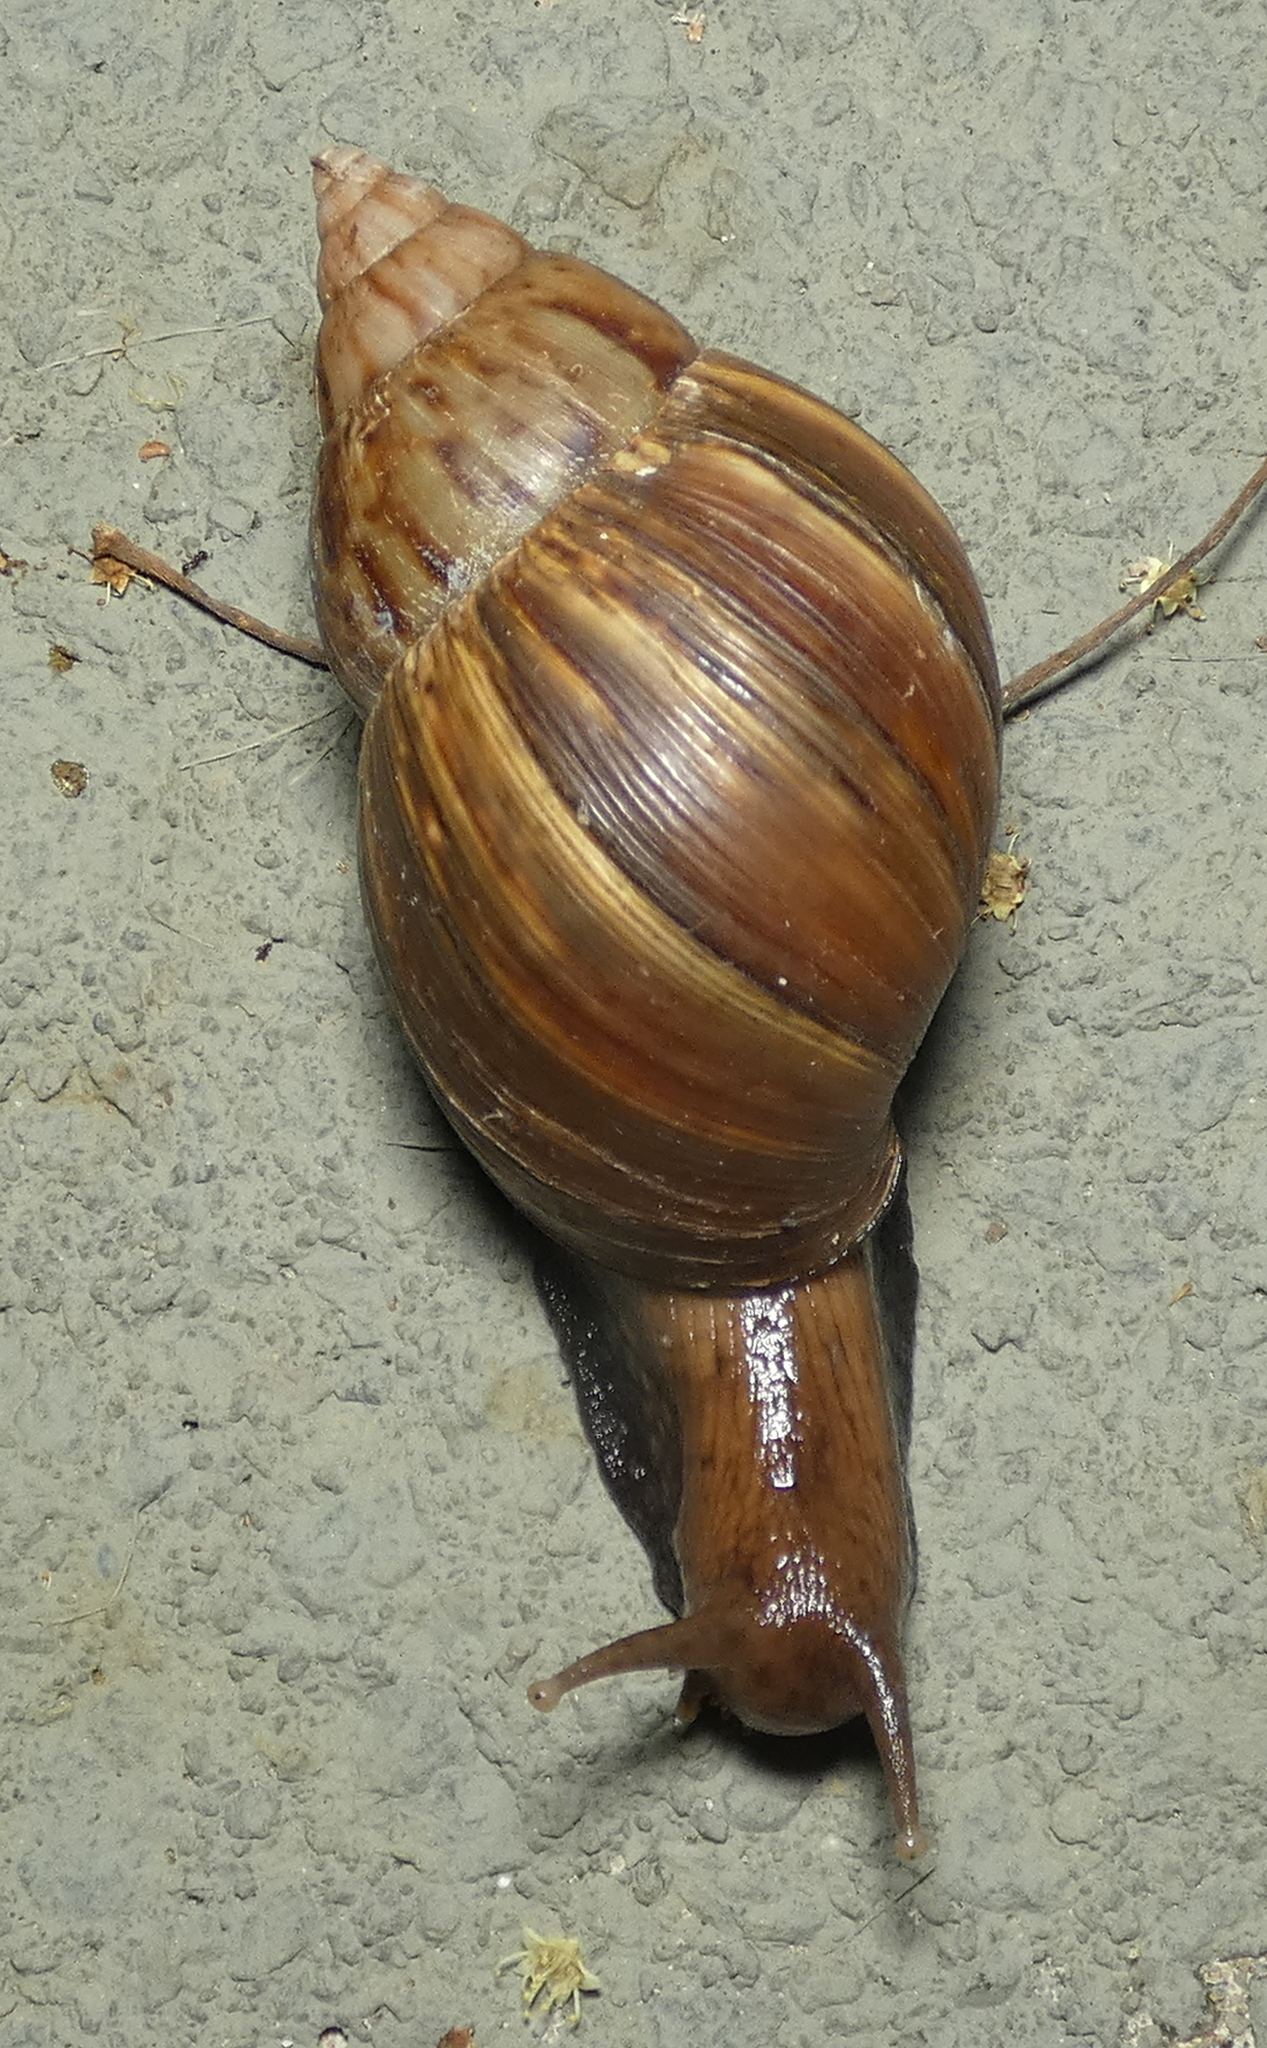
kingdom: Animalia
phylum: Mollusca
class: Gastropoda
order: Stylommatophora
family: Achatinidae
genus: Lissachatina
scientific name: Lissachatina fulica
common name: Giant african snail
